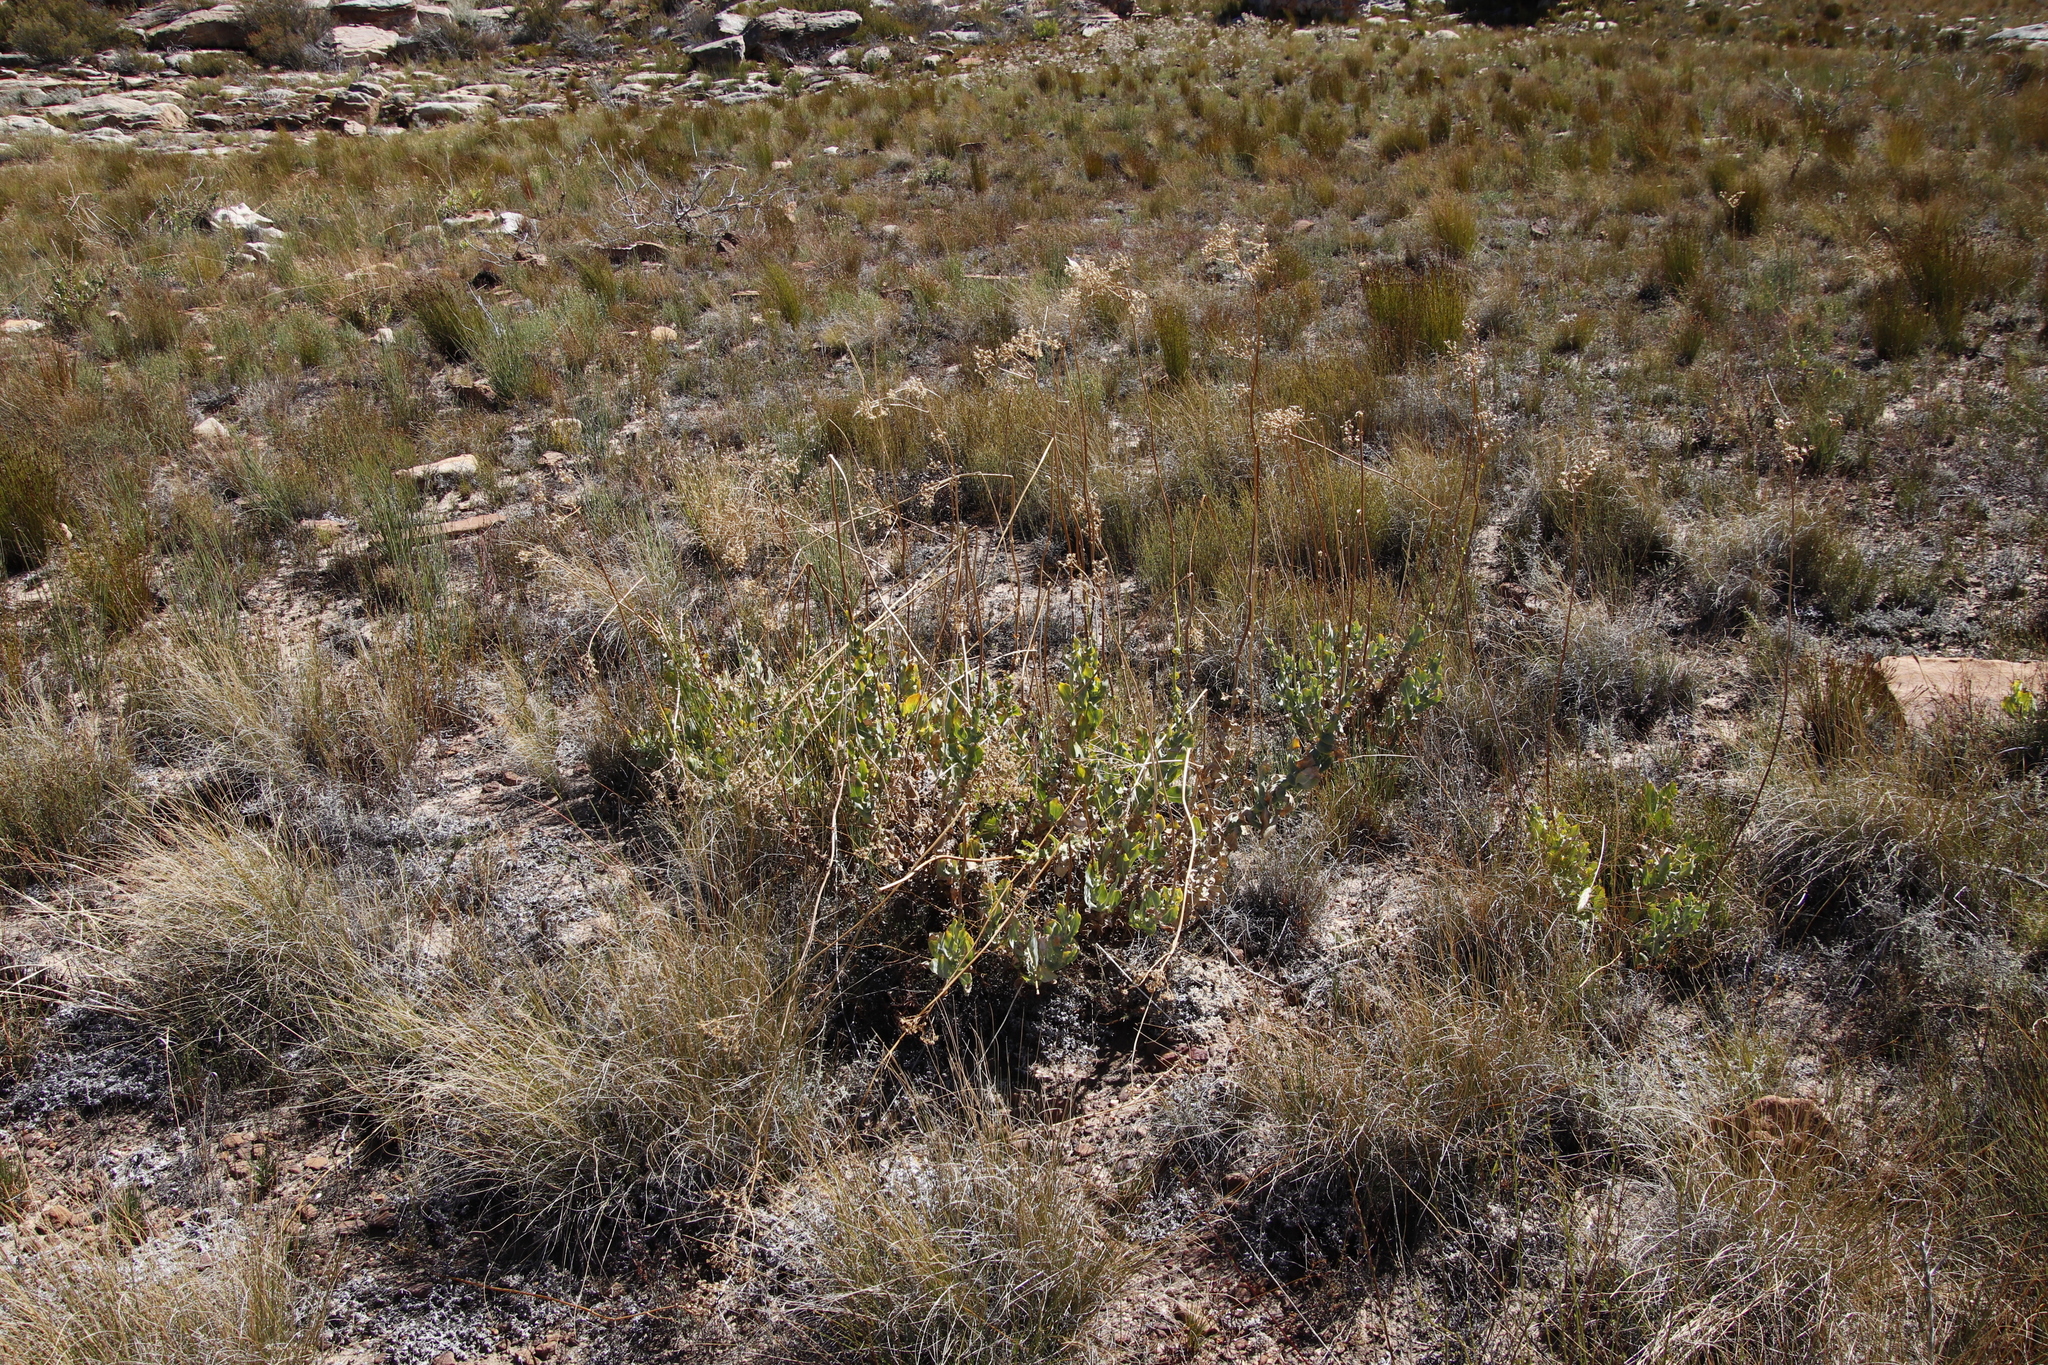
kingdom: Plantae
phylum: Tracheophyta
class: Magnoliopsida
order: Asterales
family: Asteraceae
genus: Othonna
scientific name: Othonna parviflora
